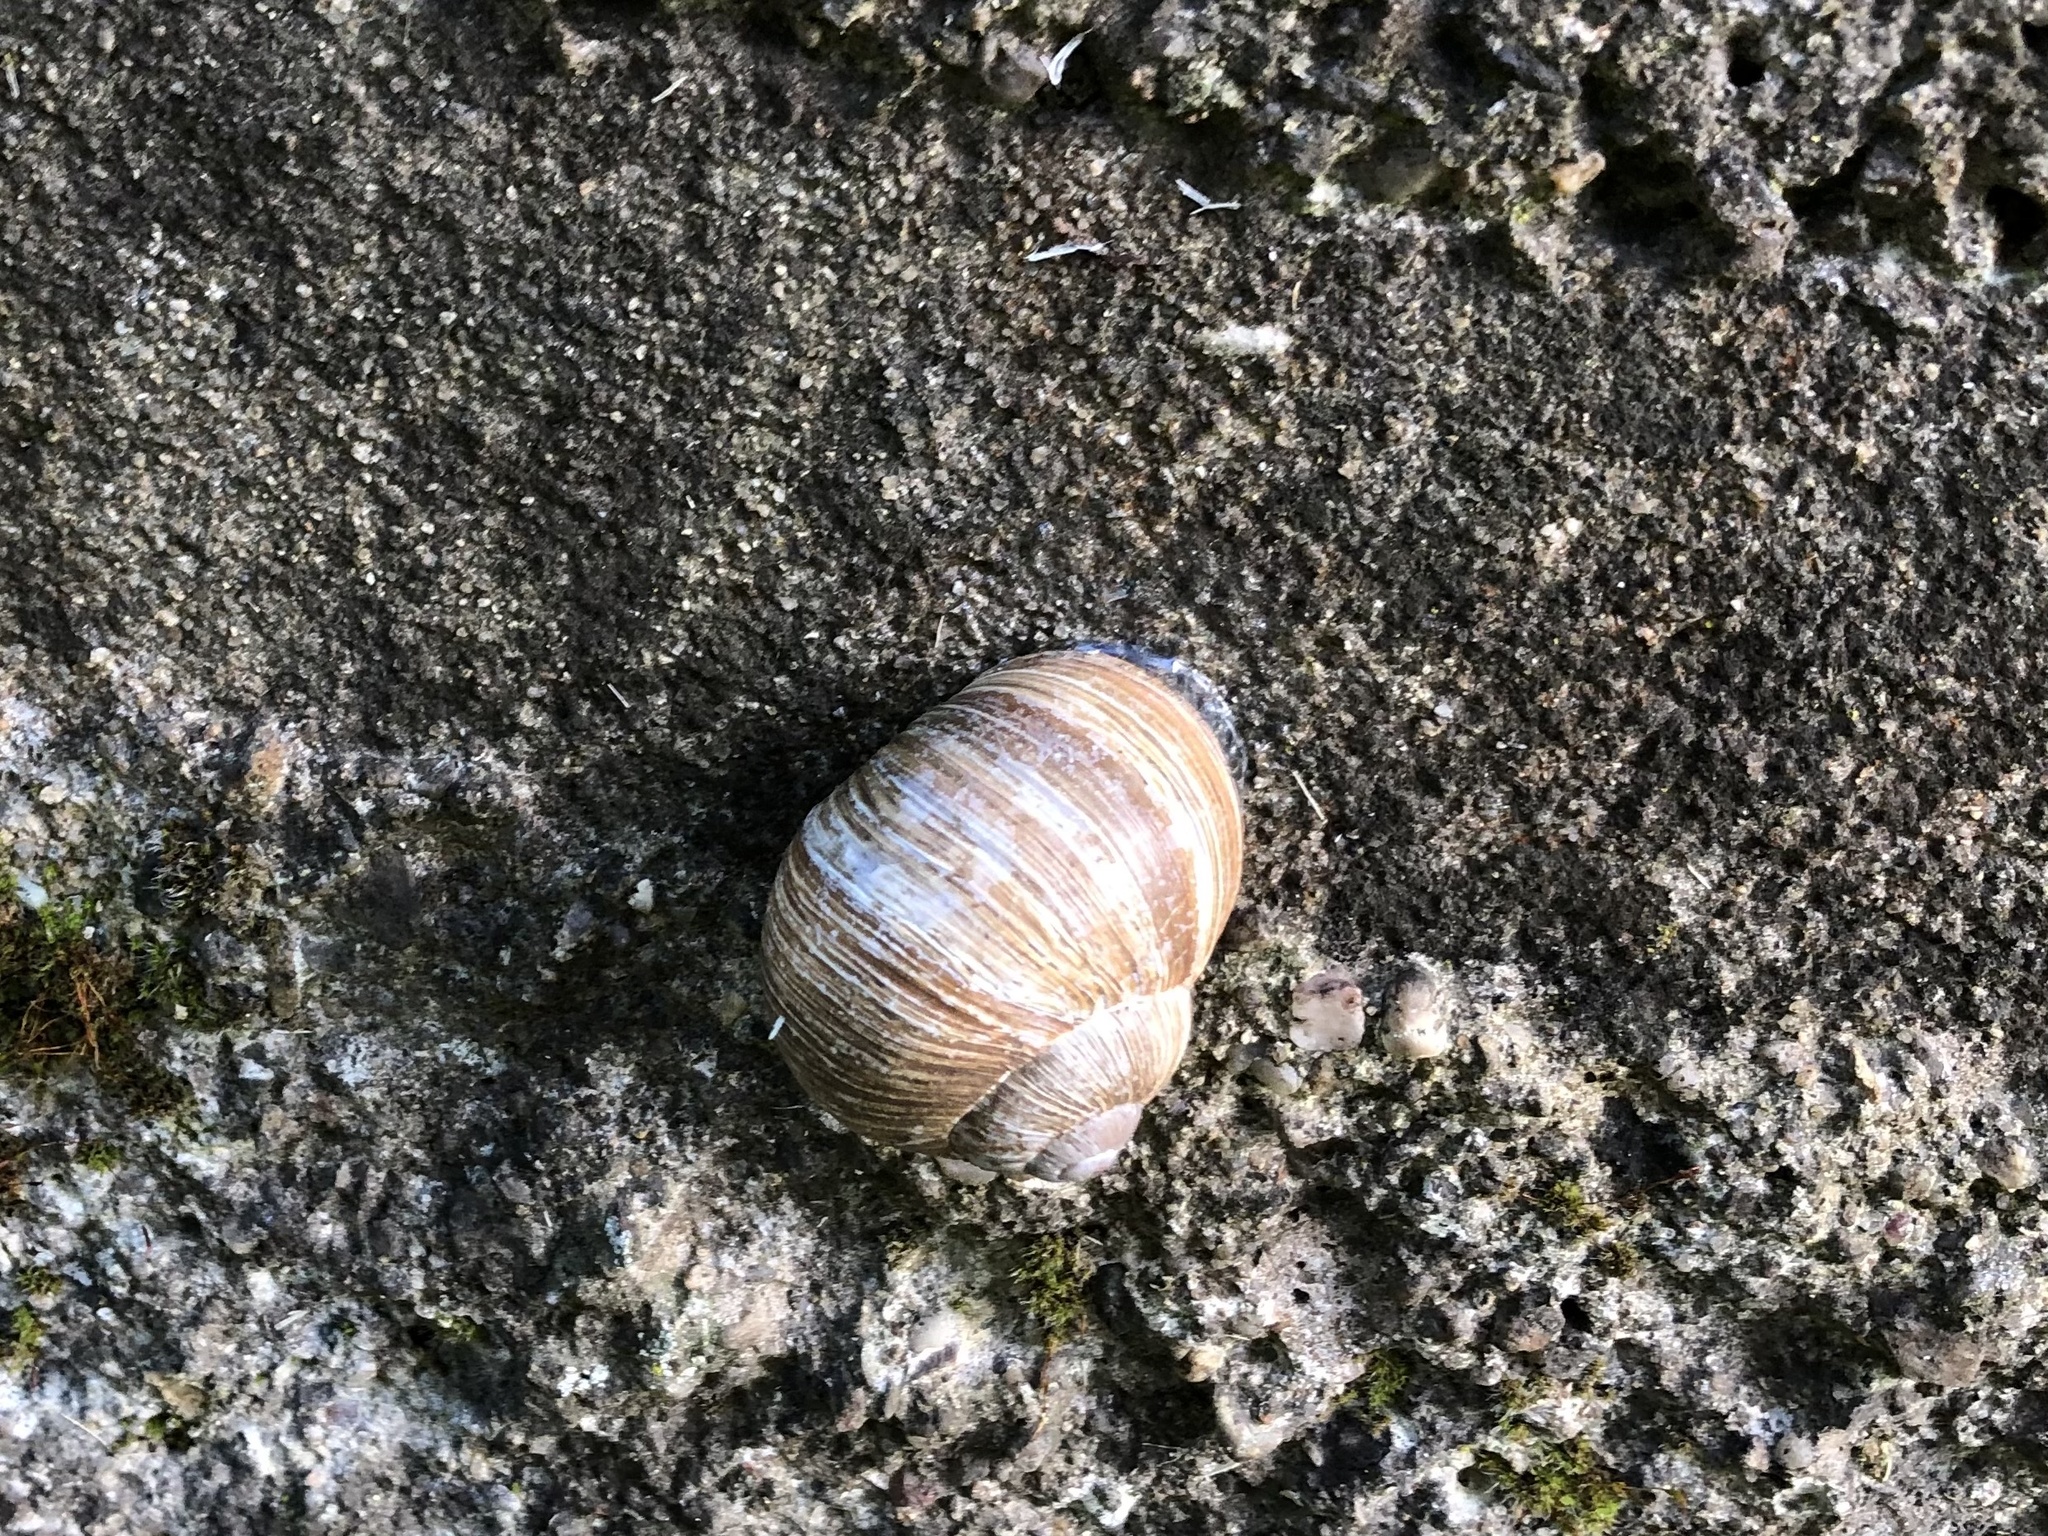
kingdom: Animalia
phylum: Mollusca
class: Gastropoda
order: Stylommatophora
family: Helicidae
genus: Helix
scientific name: Helix pomatia
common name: Roman snail
